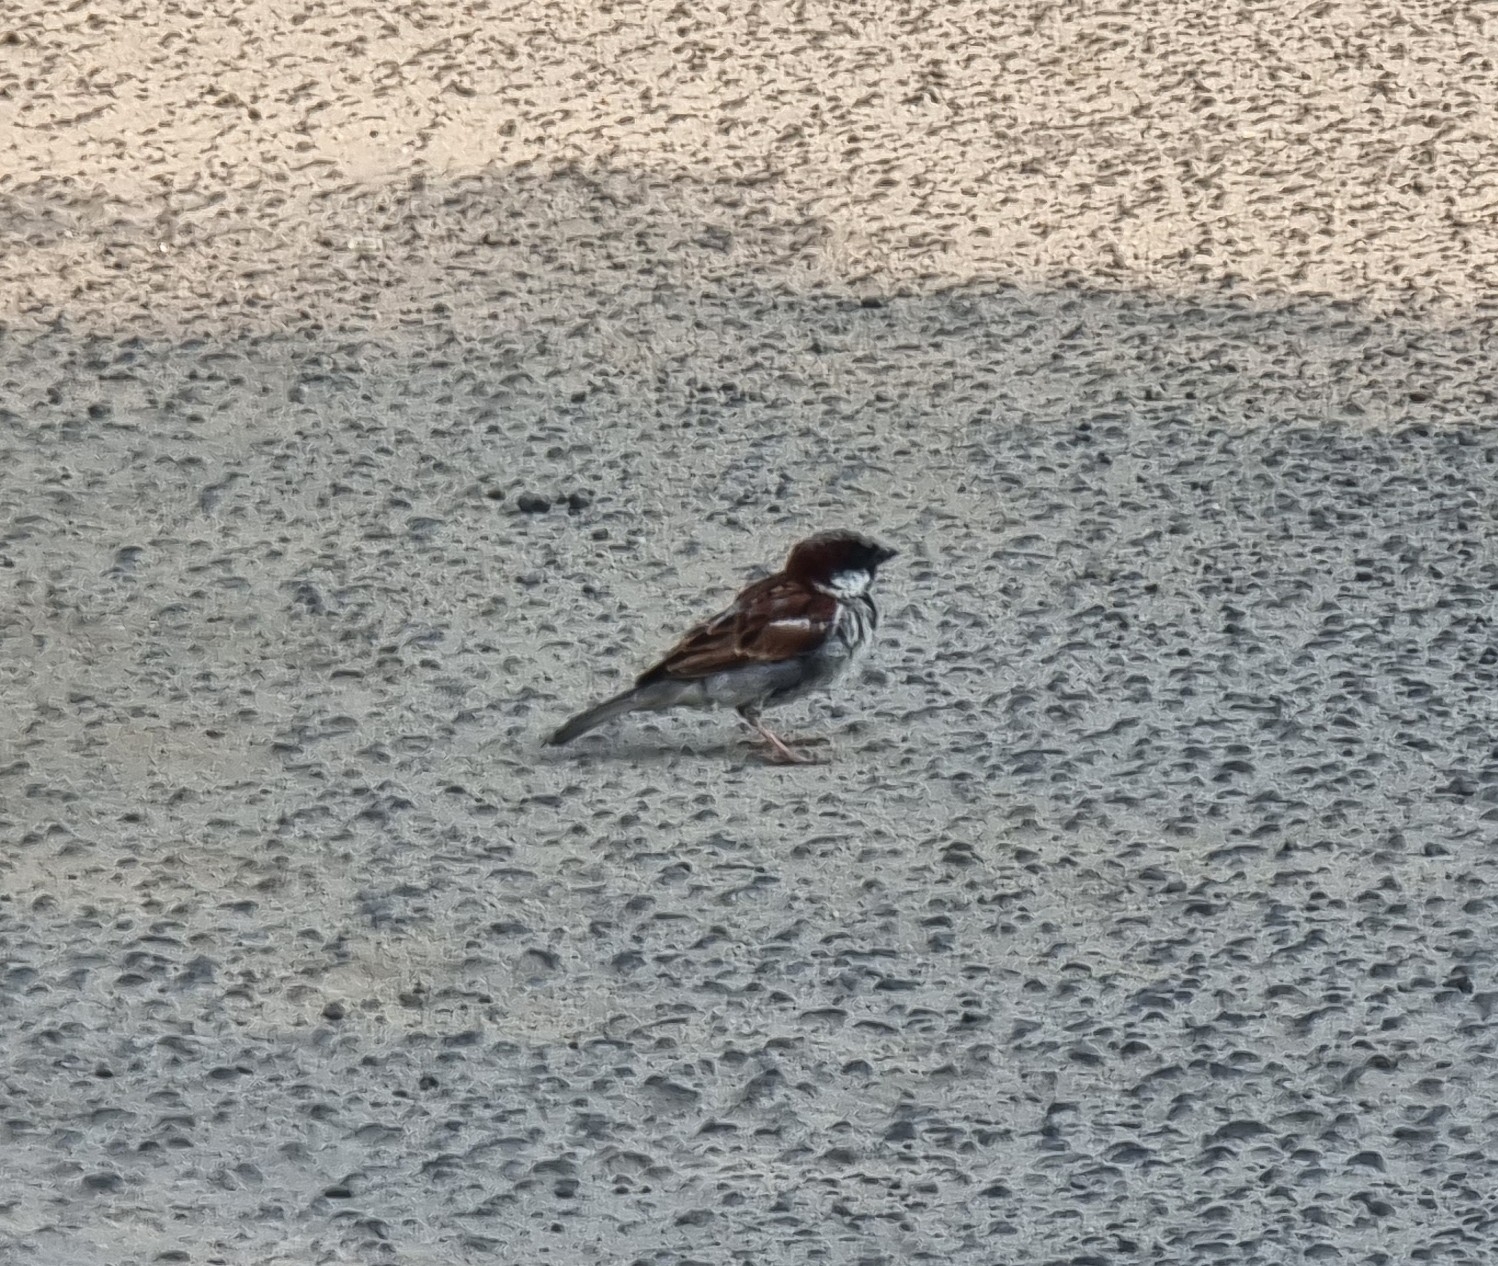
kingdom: Animalia
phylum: Chordata
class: Aves
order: Passeriformes
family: Passeridae
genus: Passer
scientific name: Passer domesticus
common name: House sparrow
